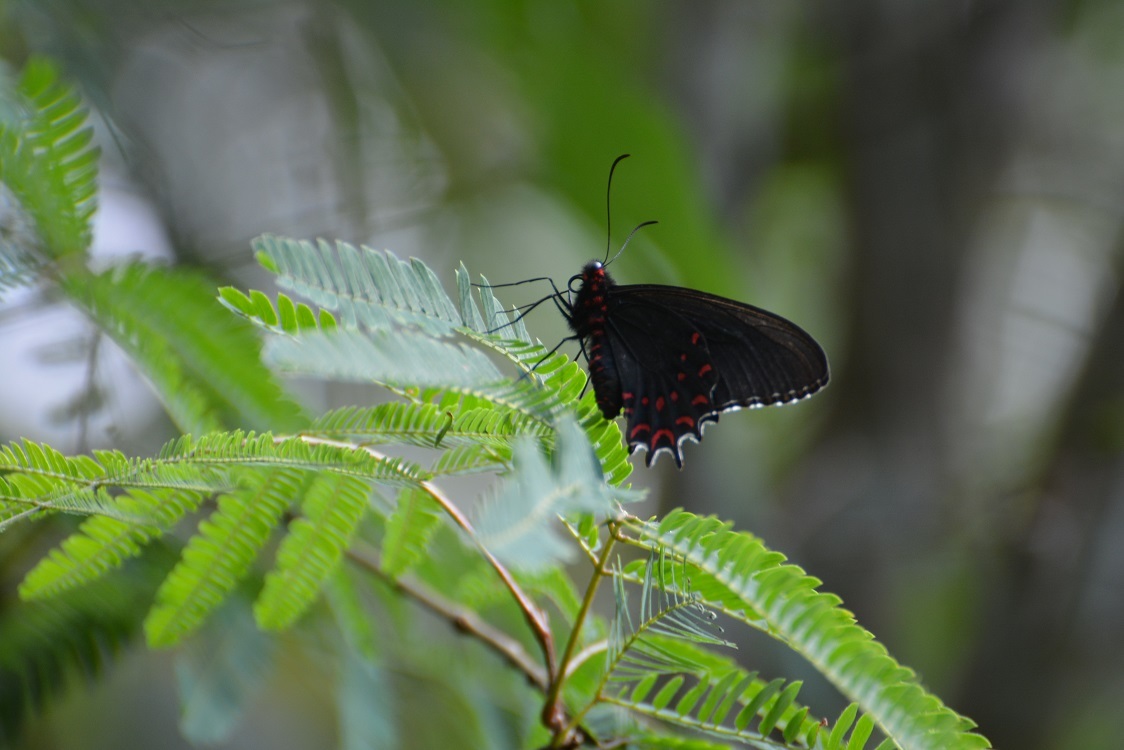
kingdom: Animalia
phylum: Arthropoda
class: Insecta
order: Lepidoptera
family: Papilionidae
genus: Parides
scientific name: Parides photinus
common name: Pink-spotted cattleheart
